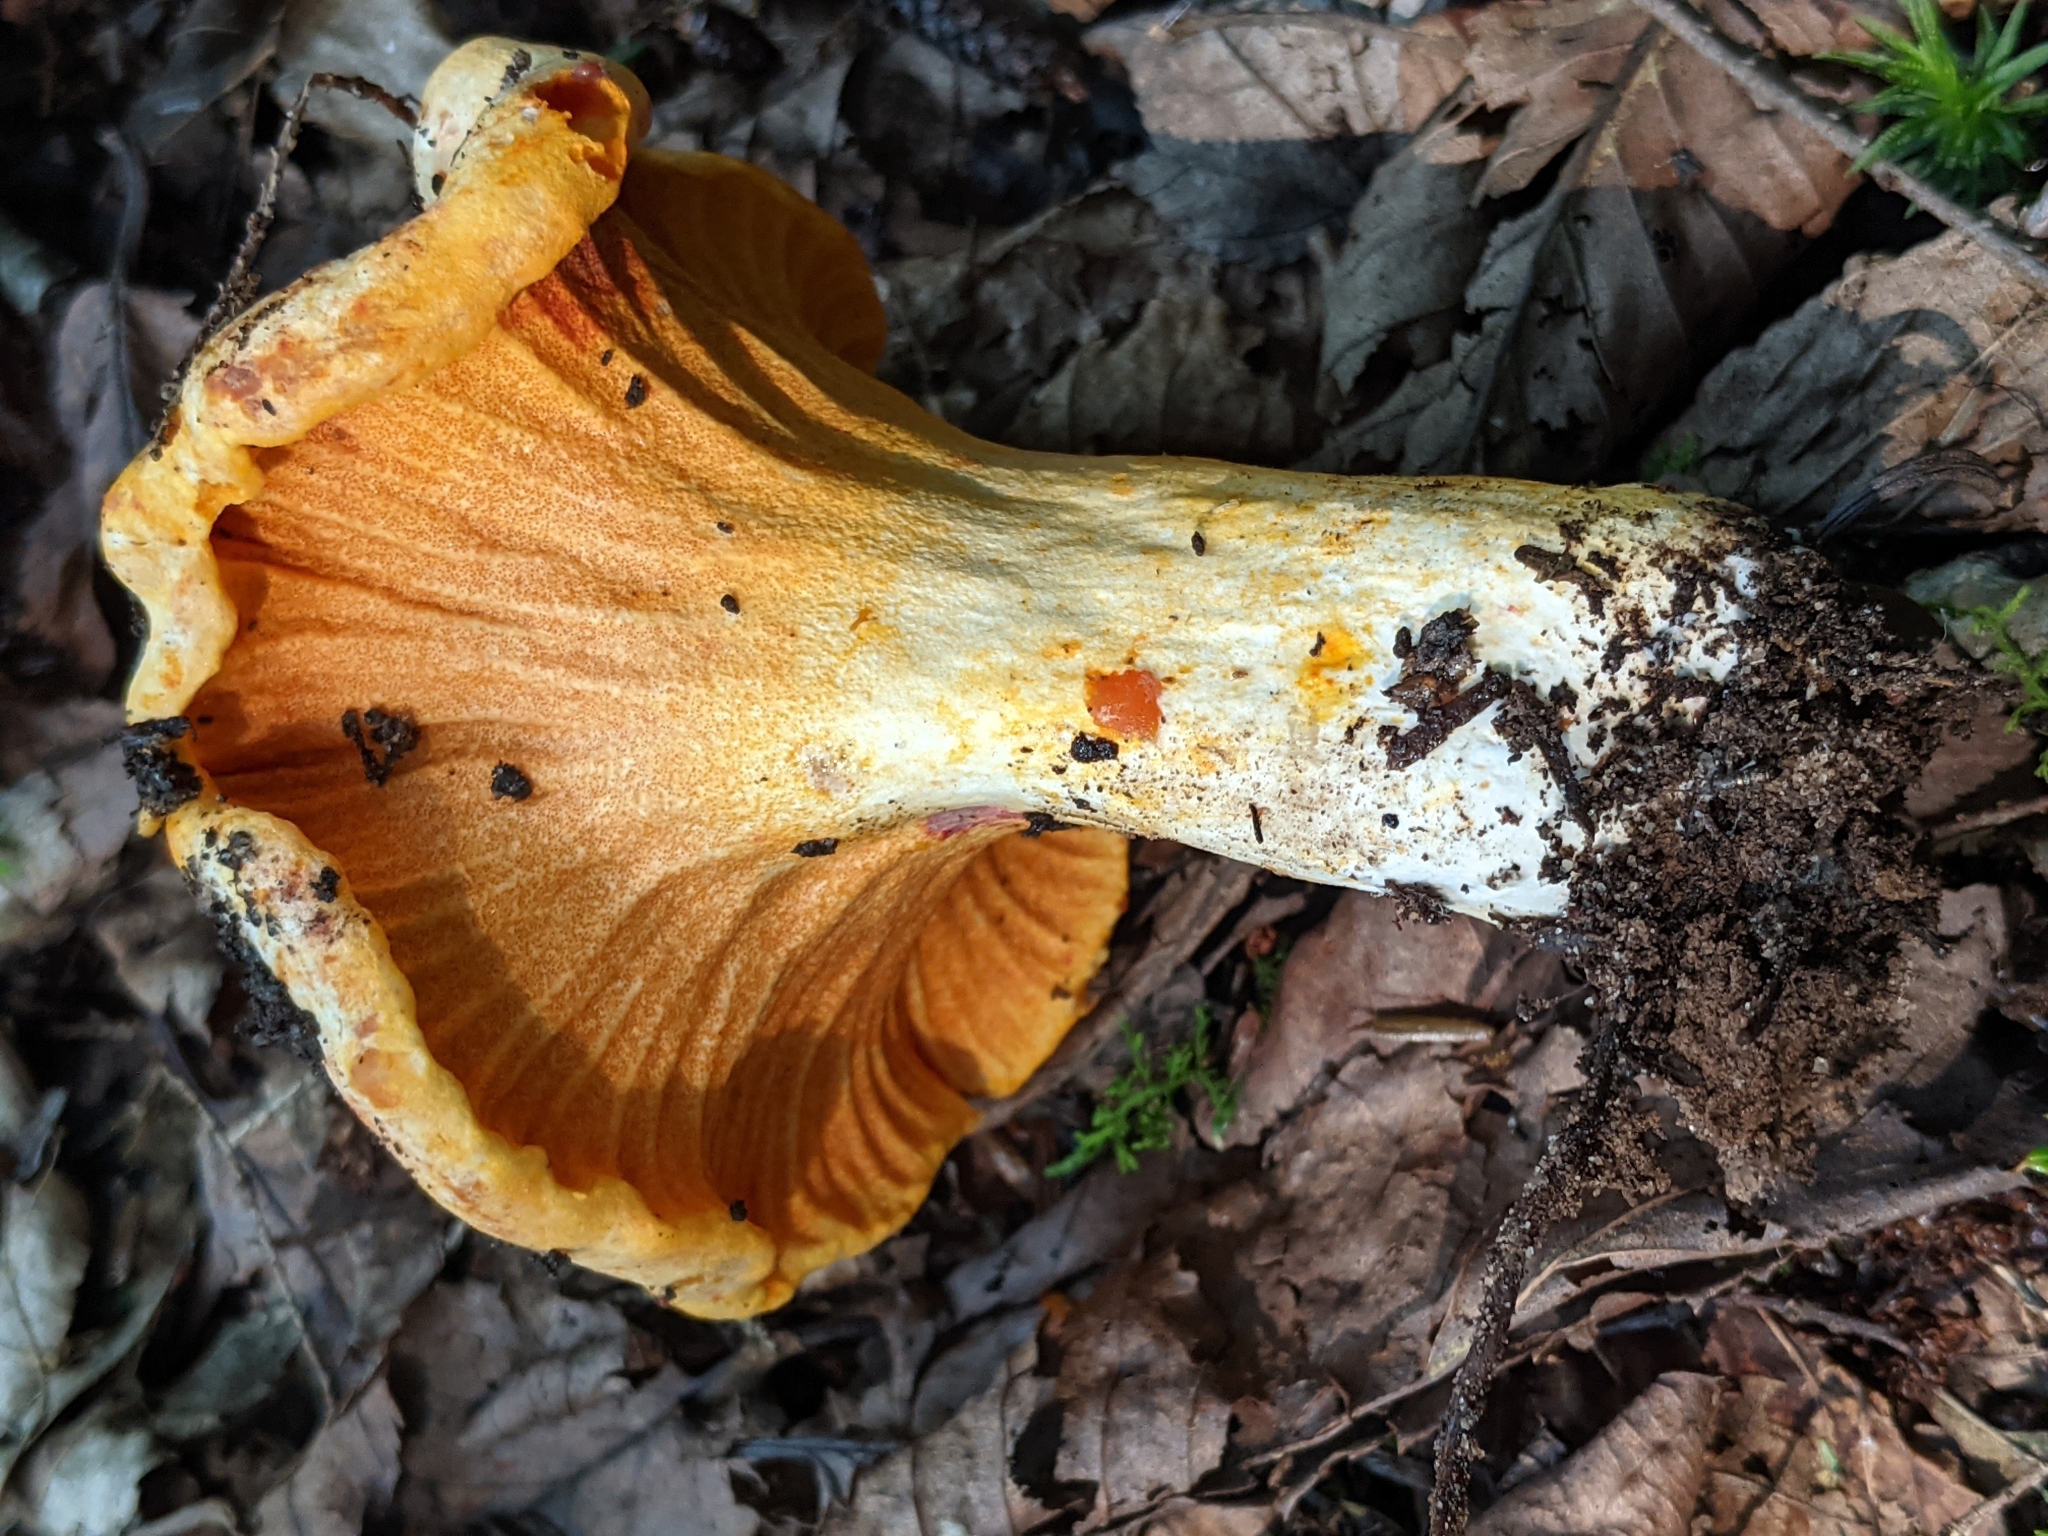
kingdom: Fungi
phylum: Ascomycota
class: Sordariomycetes
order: Hypocreales
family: Hypocreaceae
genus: Hypomyces
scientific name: Hypomyces lactifluorum
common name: Lobster mushroom
